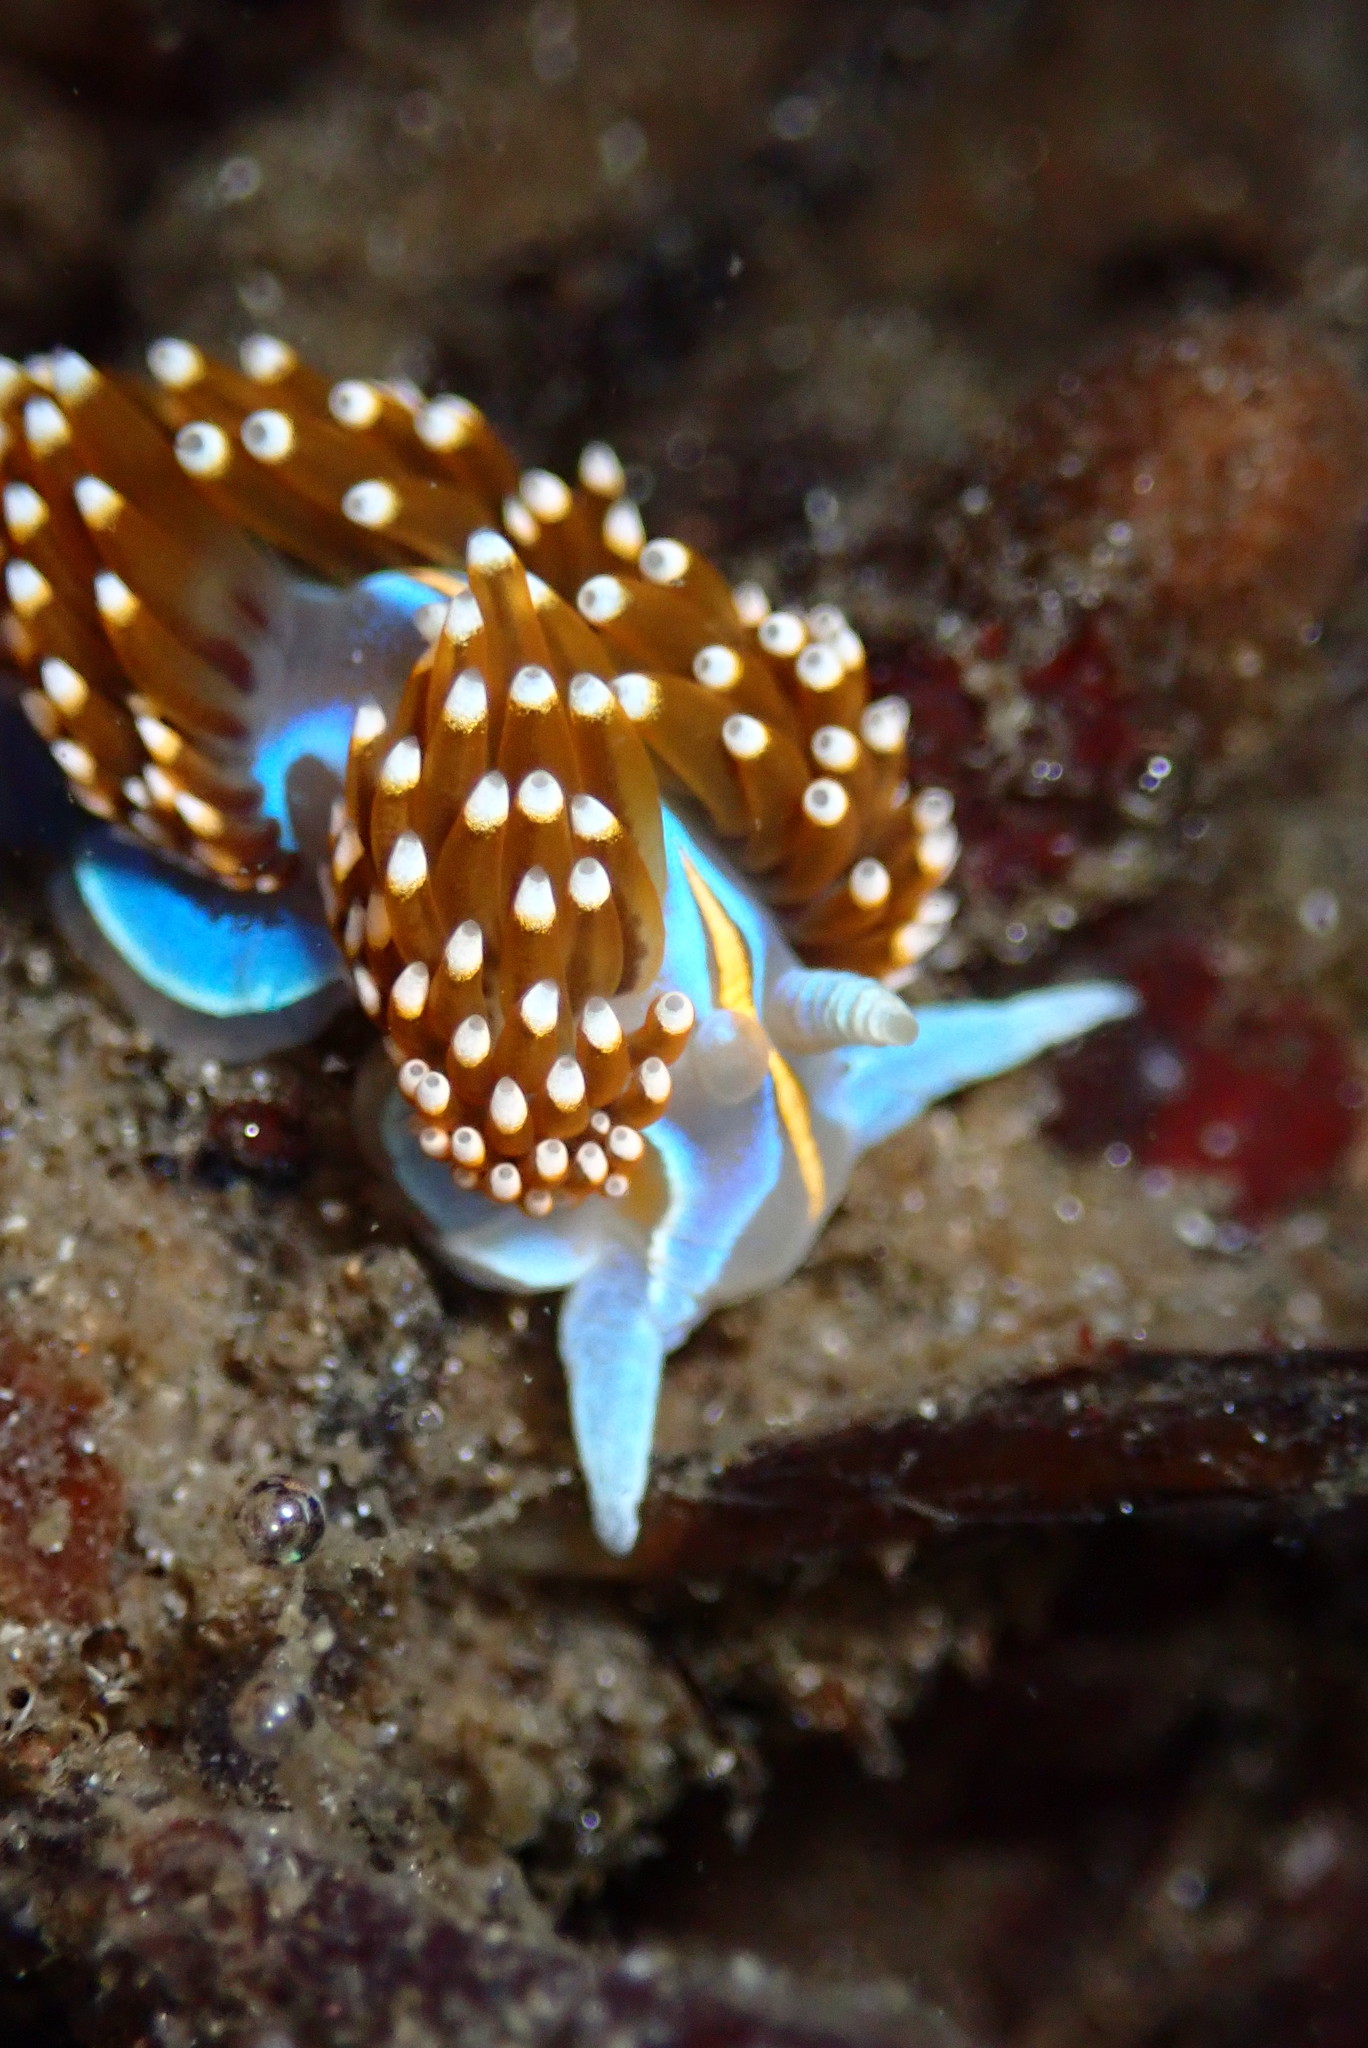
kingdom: Animalia
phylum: Mollusca
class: Gastropoda
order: Nudibranchia
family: Myrrhinidae
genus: Hermissenda
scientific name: Hermissenda opalescens
